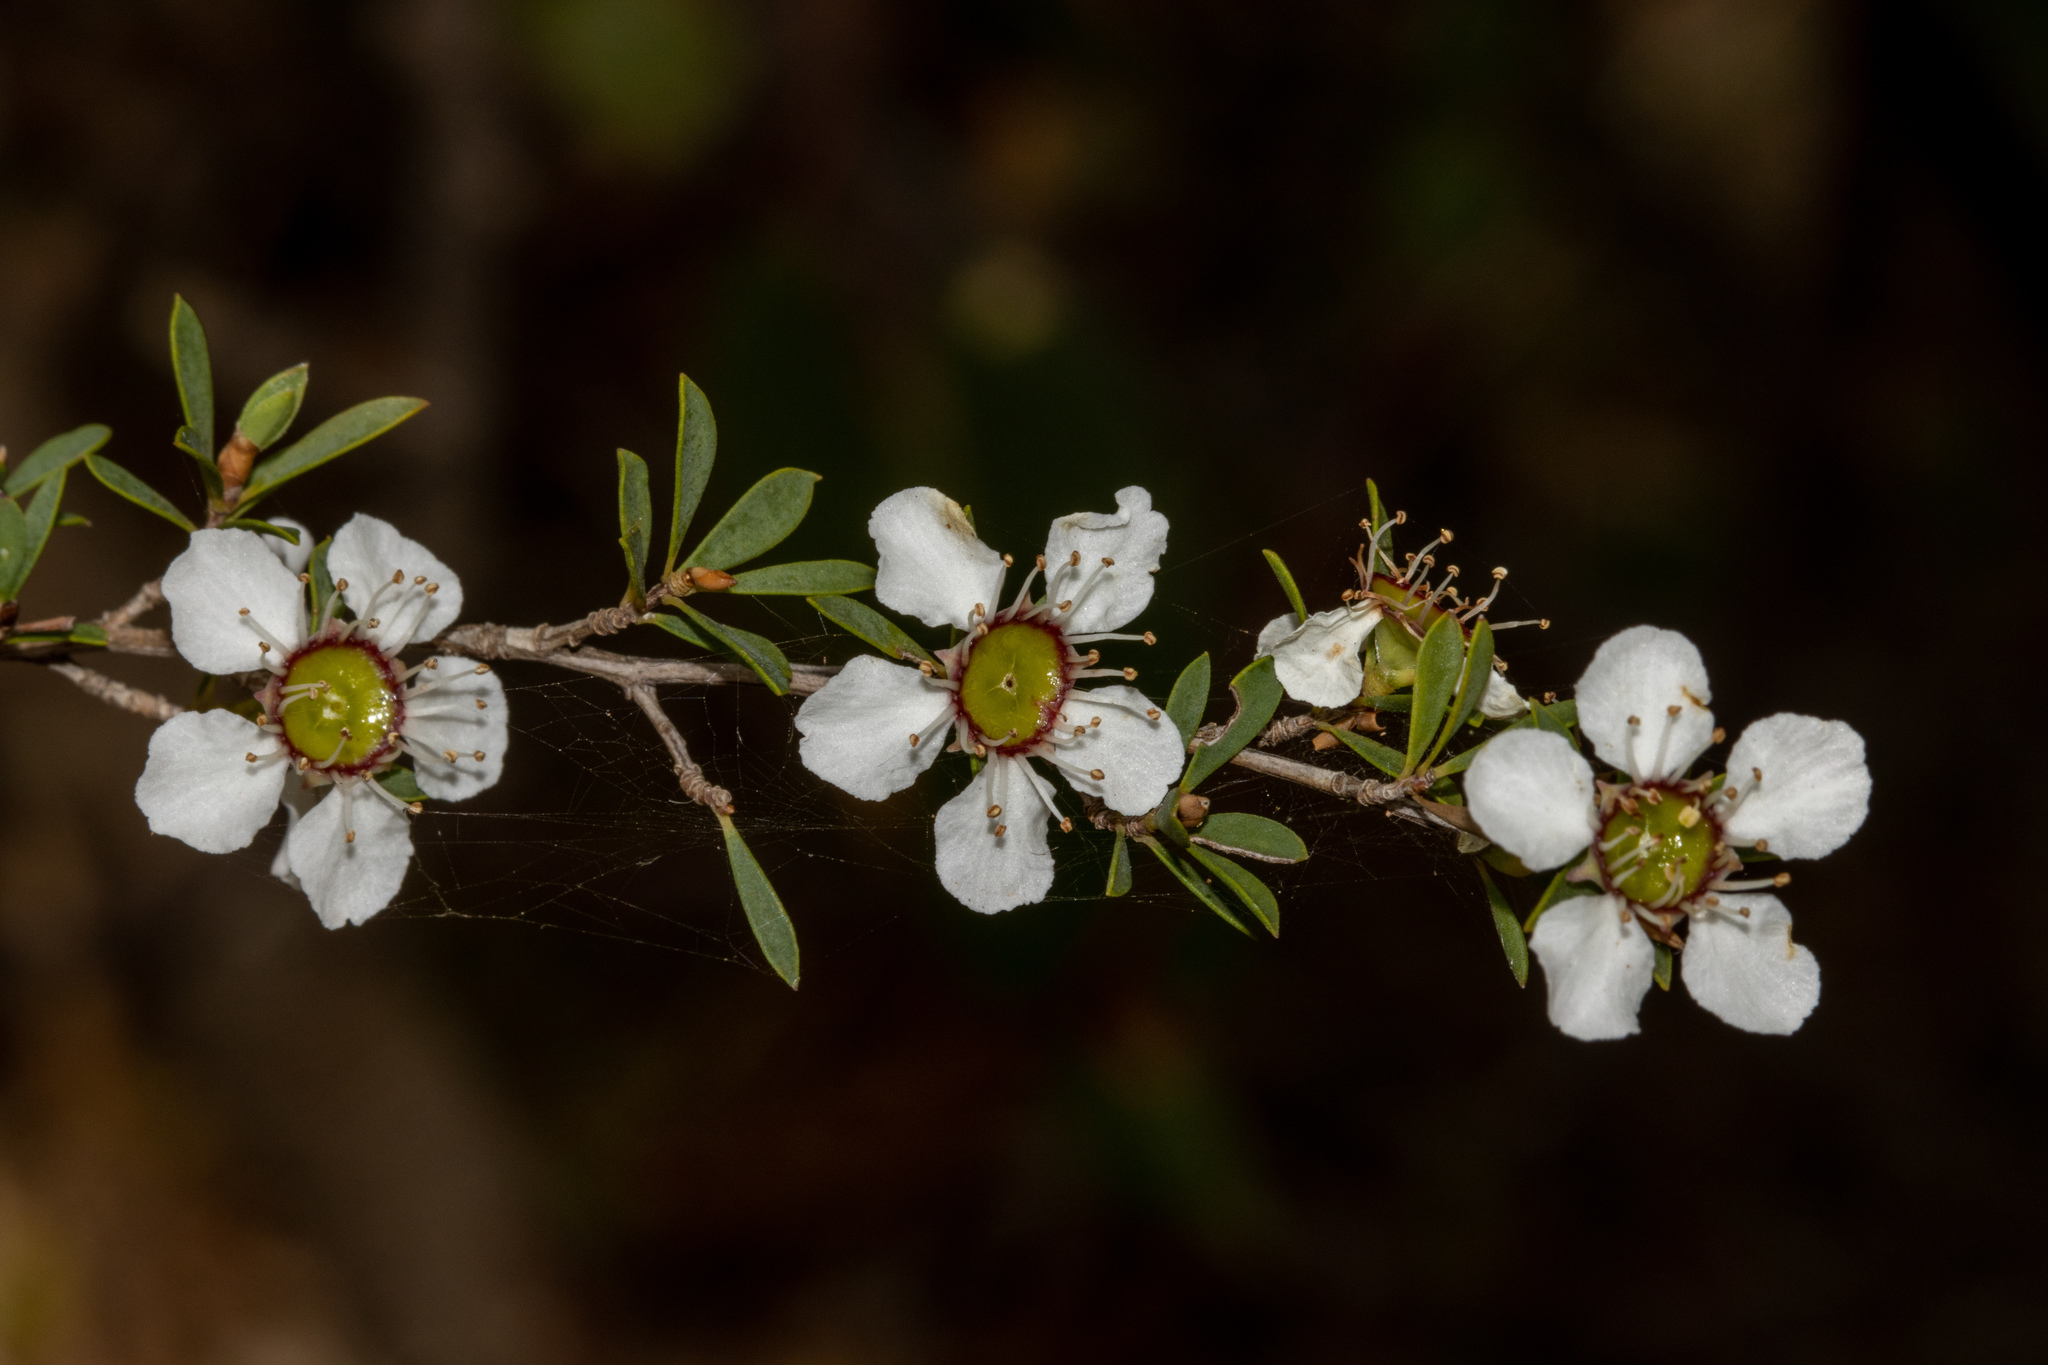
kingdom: Plantae
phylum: Tracheophyta
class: Magnoliopsida
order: Myrtales
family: Myrtaceae
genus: Leptospermum
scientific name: Leptospermum myrsinoides
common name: Heath teatree
